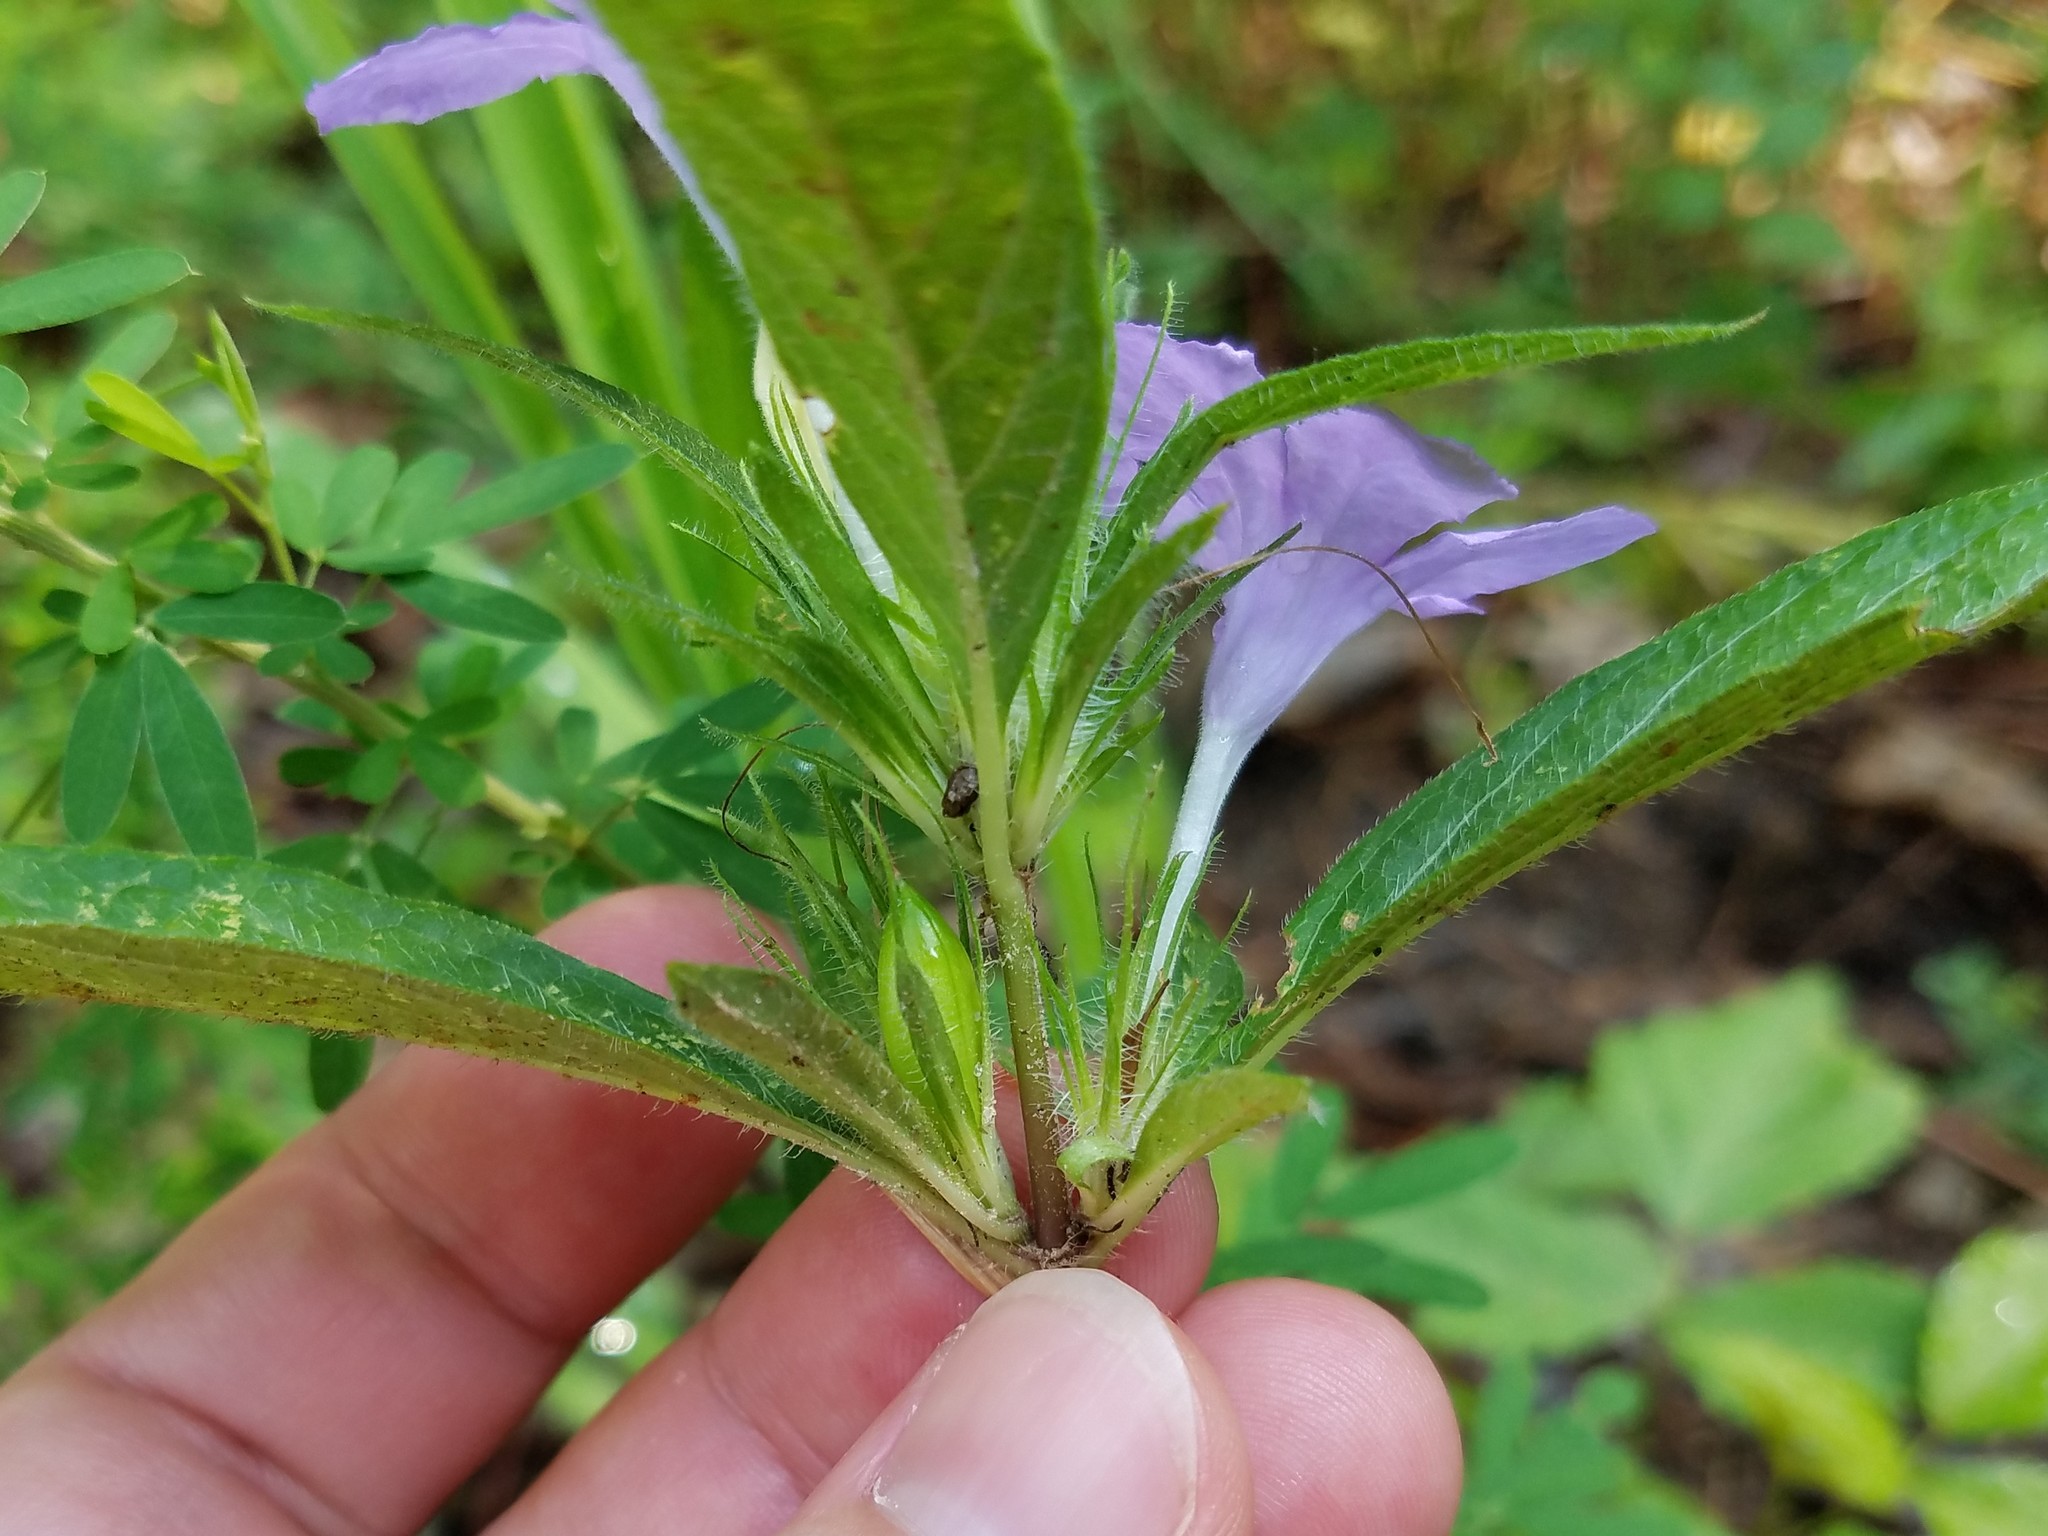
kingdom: Plantae
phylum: Tracheophyta
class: Magnoliopsida
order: Lamiales
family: Acanthaceae
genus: Ruellia
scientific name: Ruellia caroliniensis
